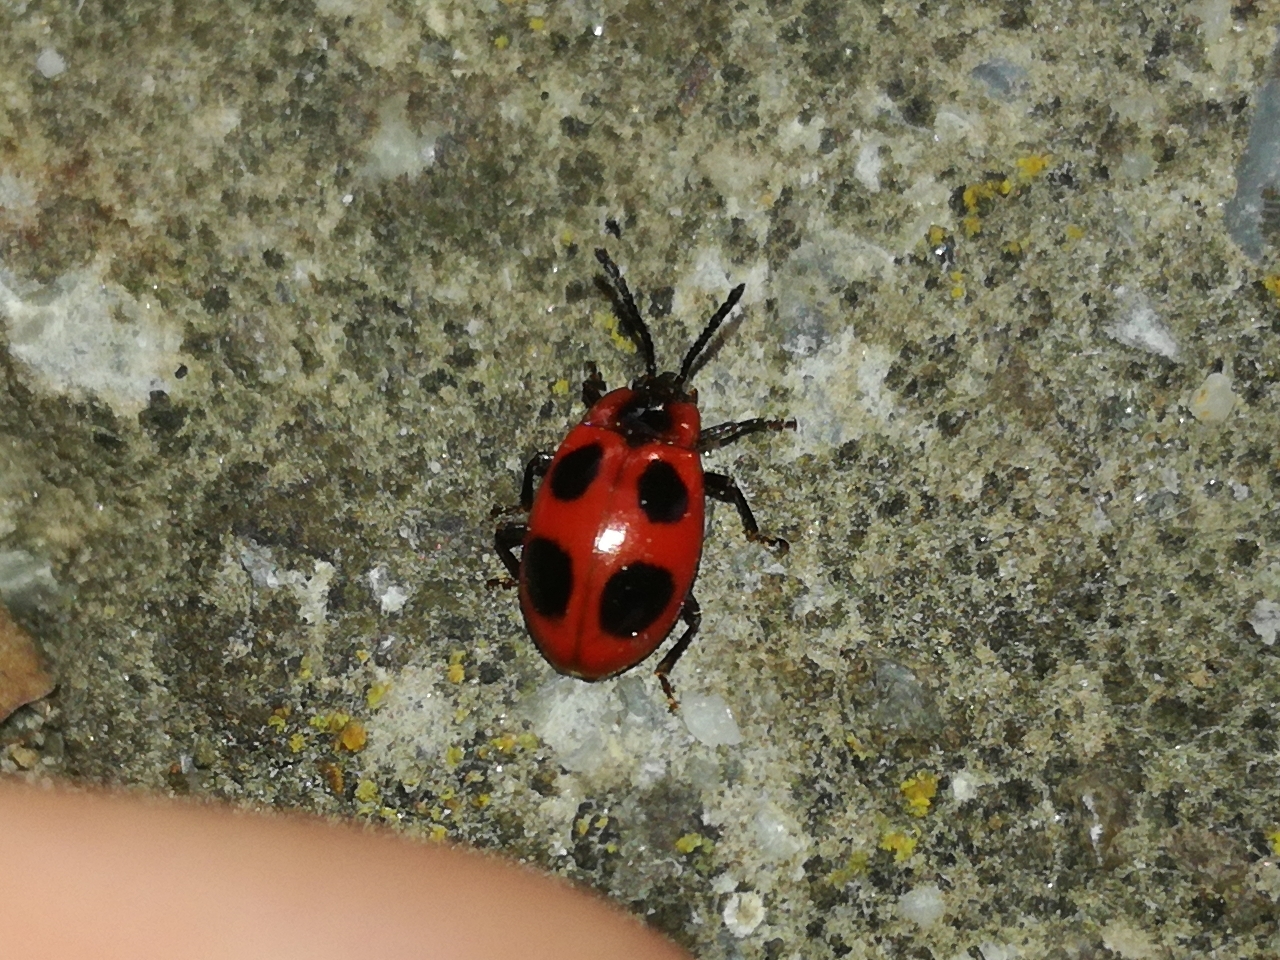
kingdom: Animalia
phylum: Arthropoda
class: Insecta
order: Coleoptera
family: Endomychidae
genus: Endomychus
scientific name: Endomychus coccineus
